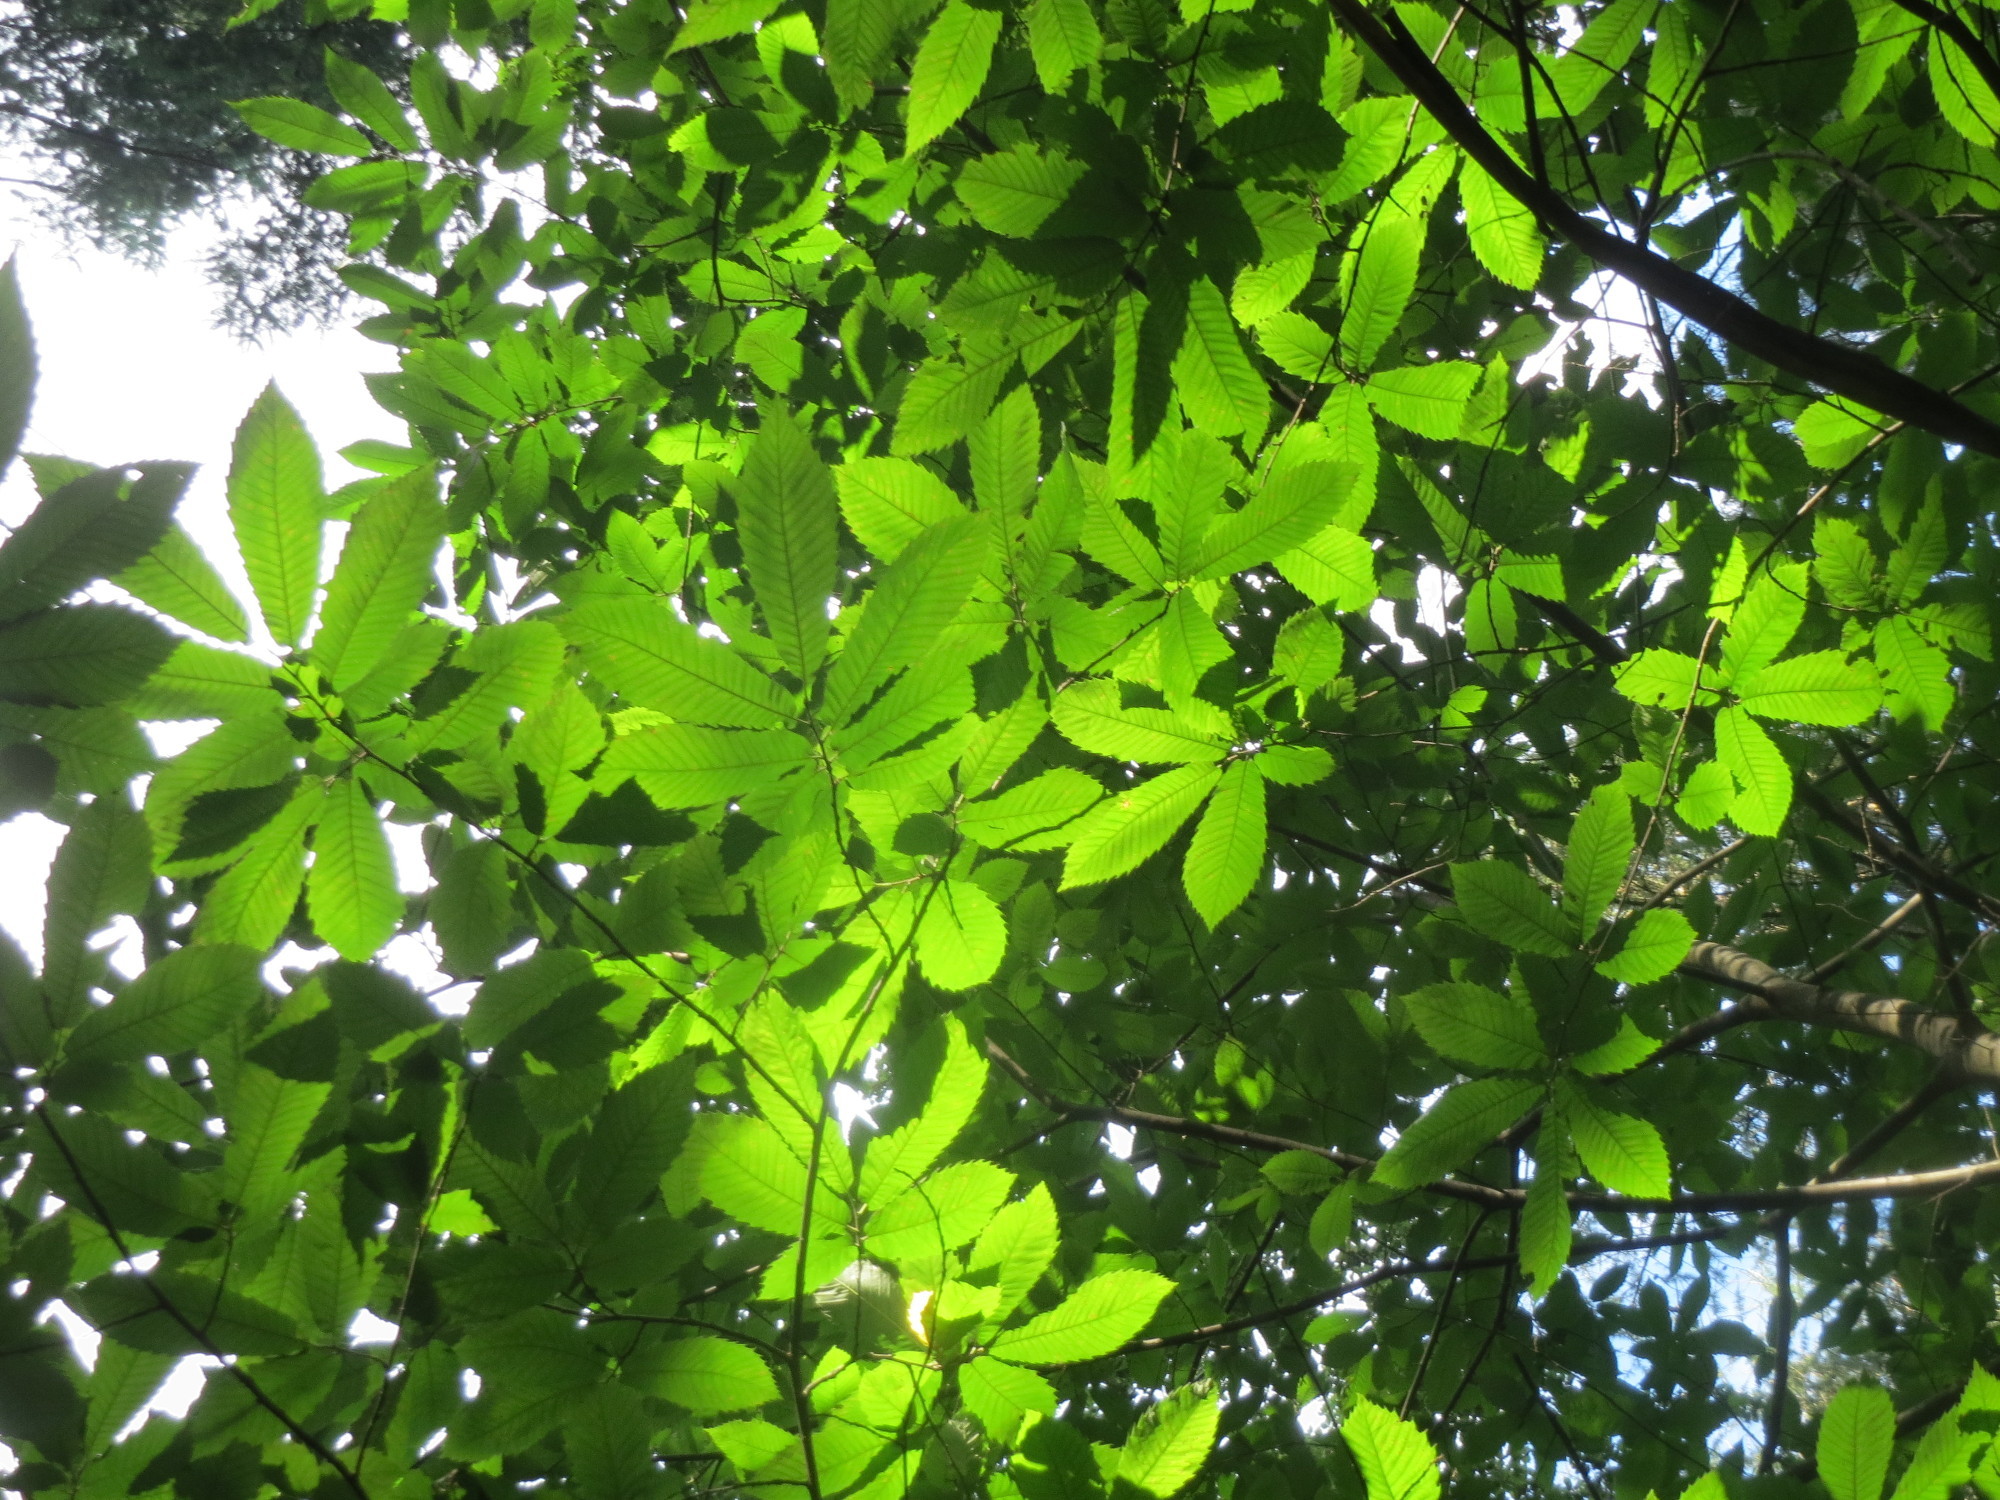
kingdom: Plantae
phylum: Tracheophyta
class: Magnoliopsida
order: Fagales
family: Fagaceae
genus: Castanea
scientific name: Castanea sativa
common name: Sweet chestnut
